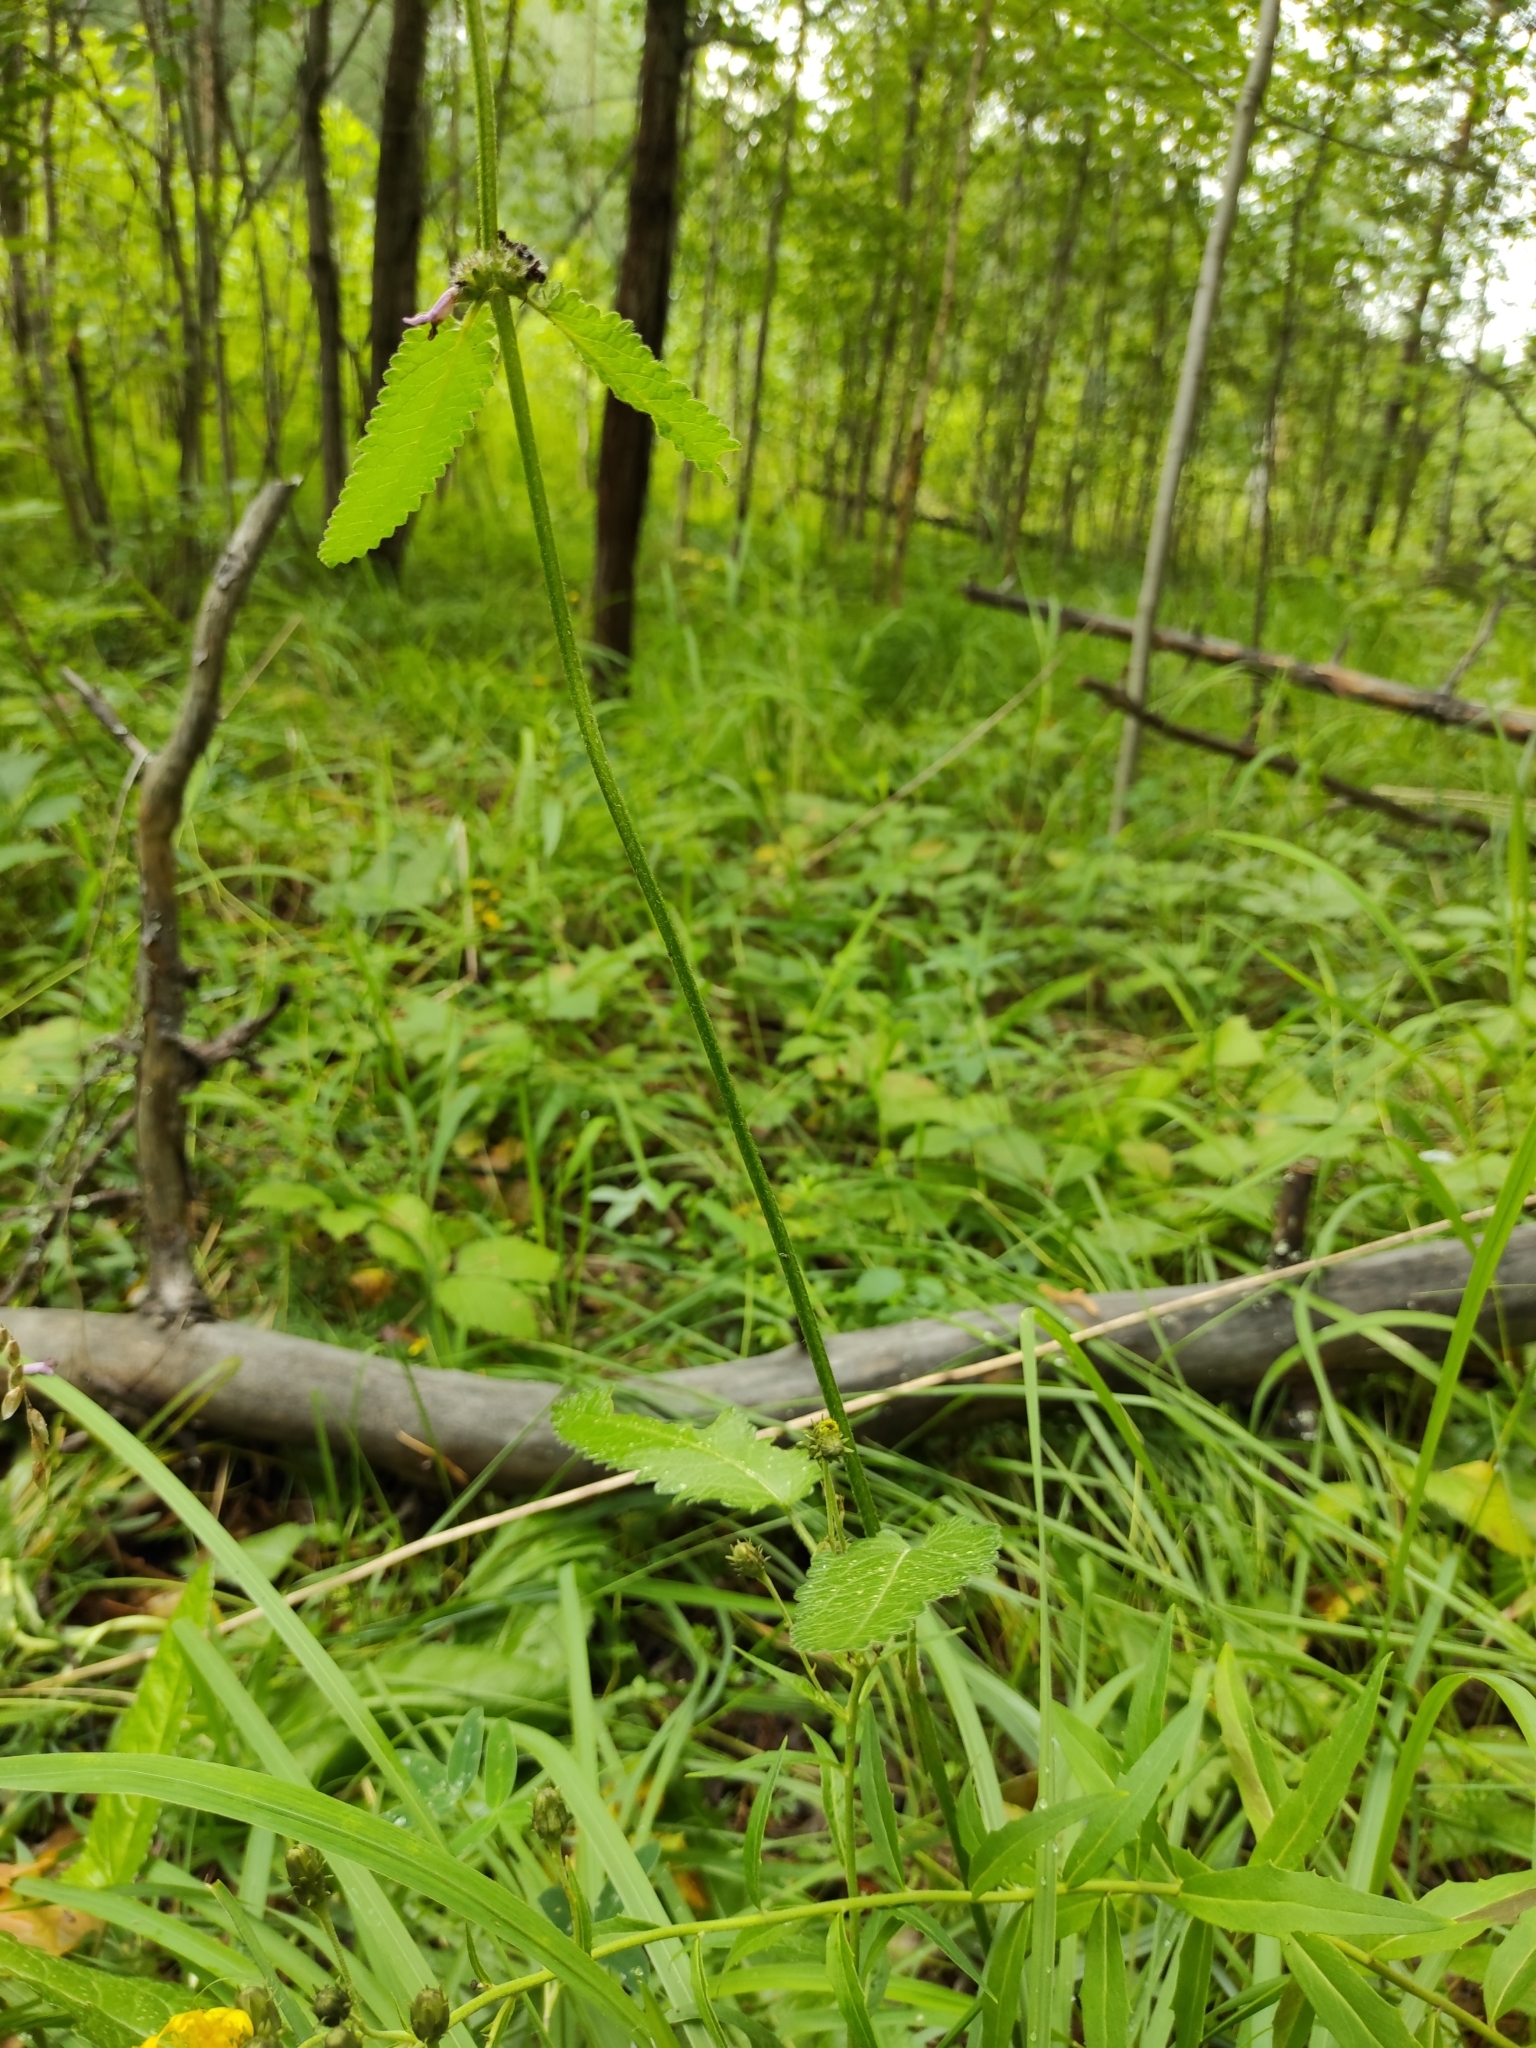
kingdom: Plantae
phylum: Tracheophyta
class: Magnoliopsida
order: Lamiales
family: Lamiaceae
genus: Betonica
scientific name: Betonica officinalis
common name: Bishop's-wort
